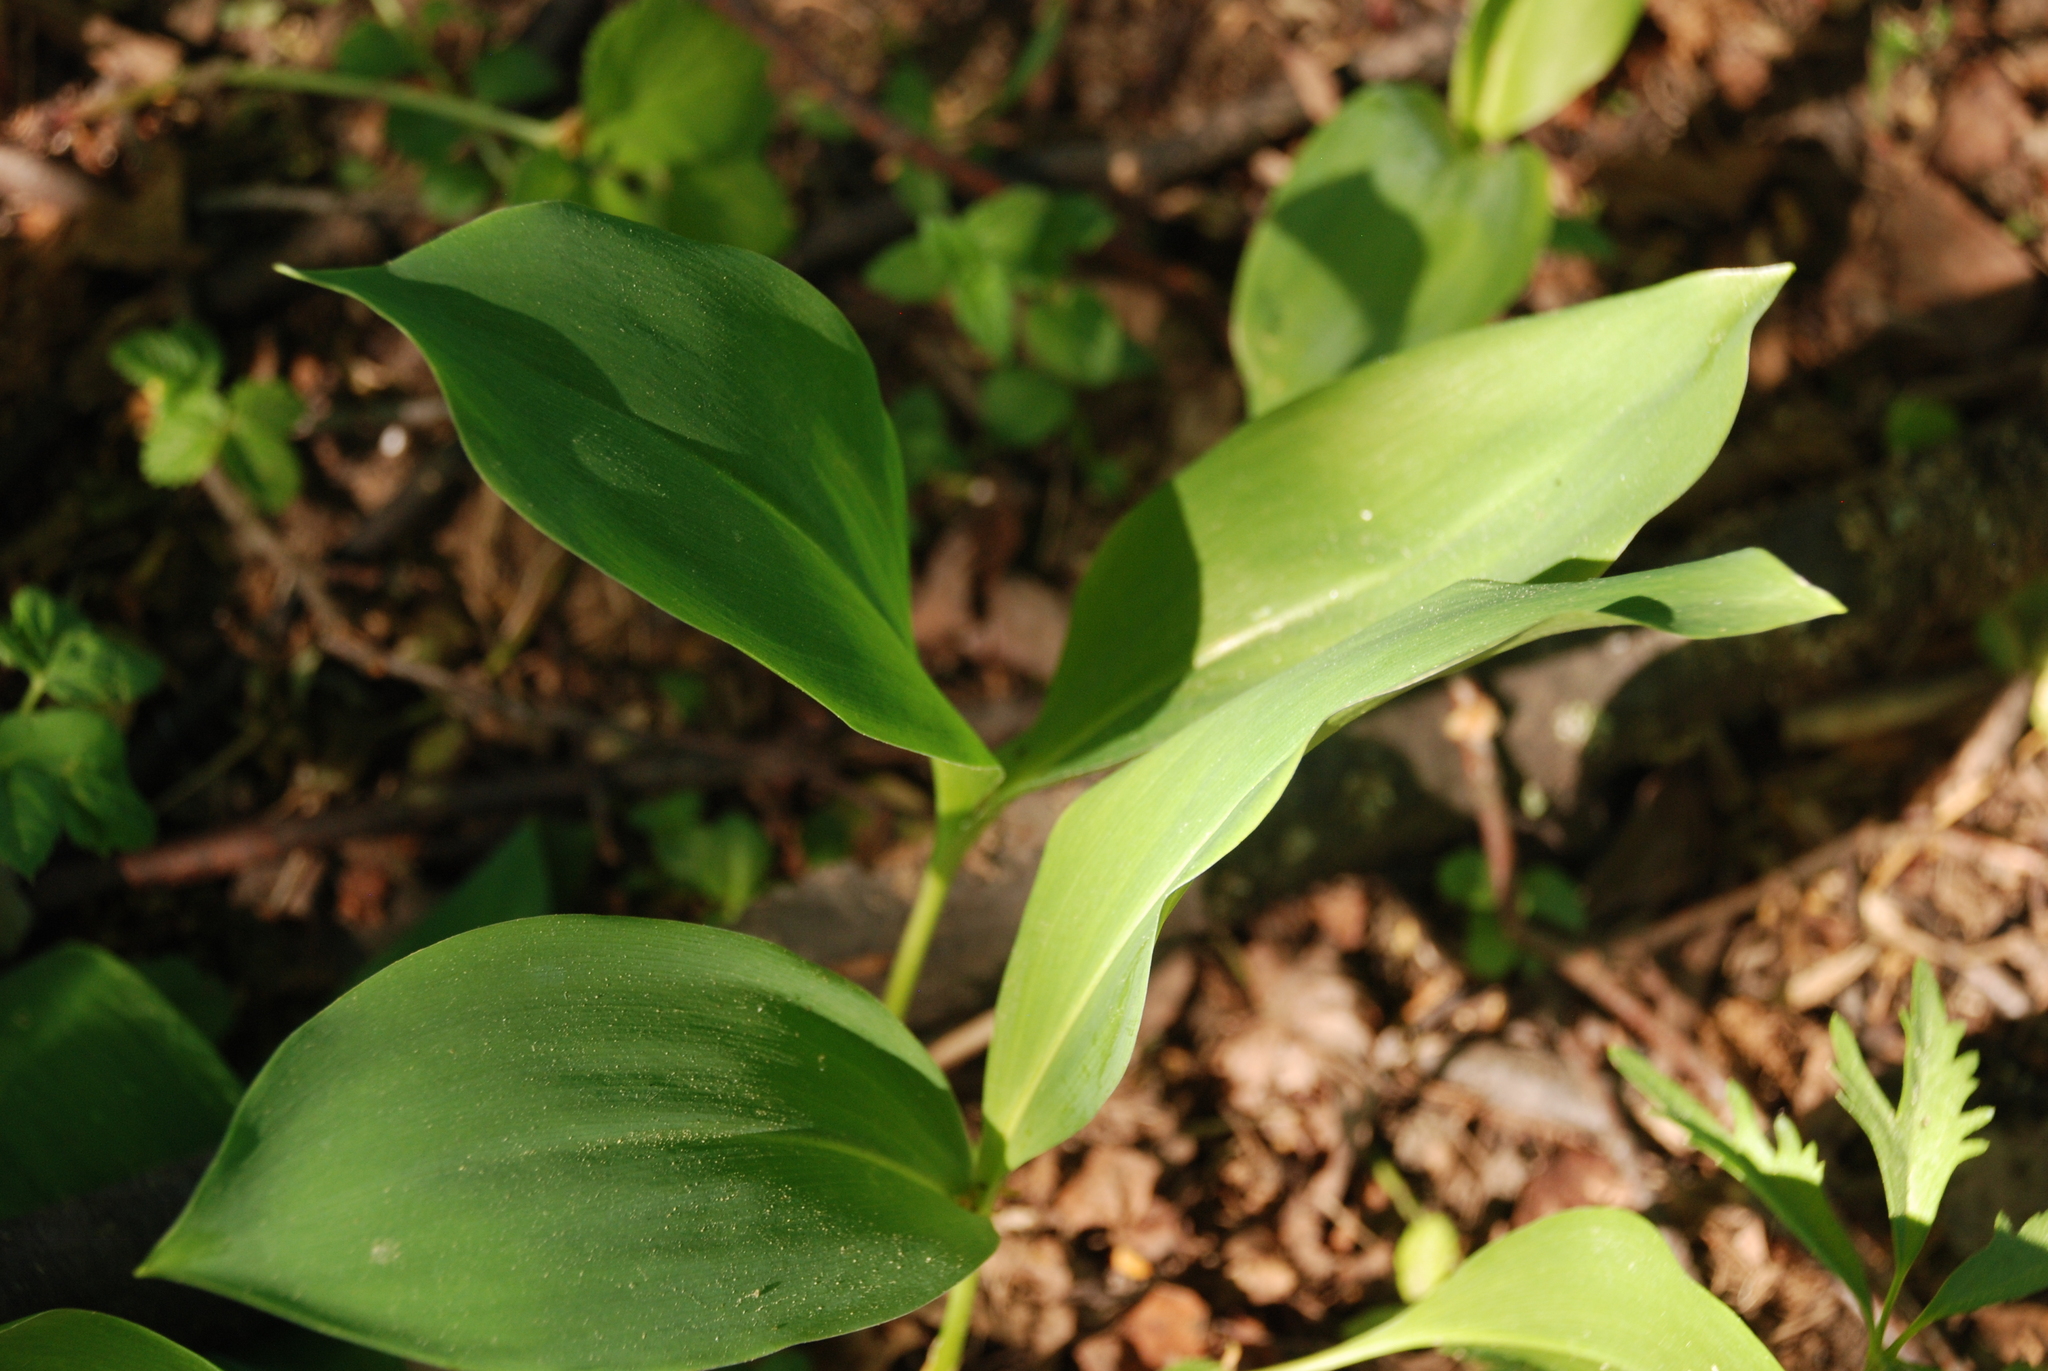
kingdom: Plantae
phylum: Tracheophyta
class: Liliopsida
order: Asparagales
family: Asparagaceae
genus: Convallaria
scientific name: Convallaria majalis
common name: Lily-of-the-valley
